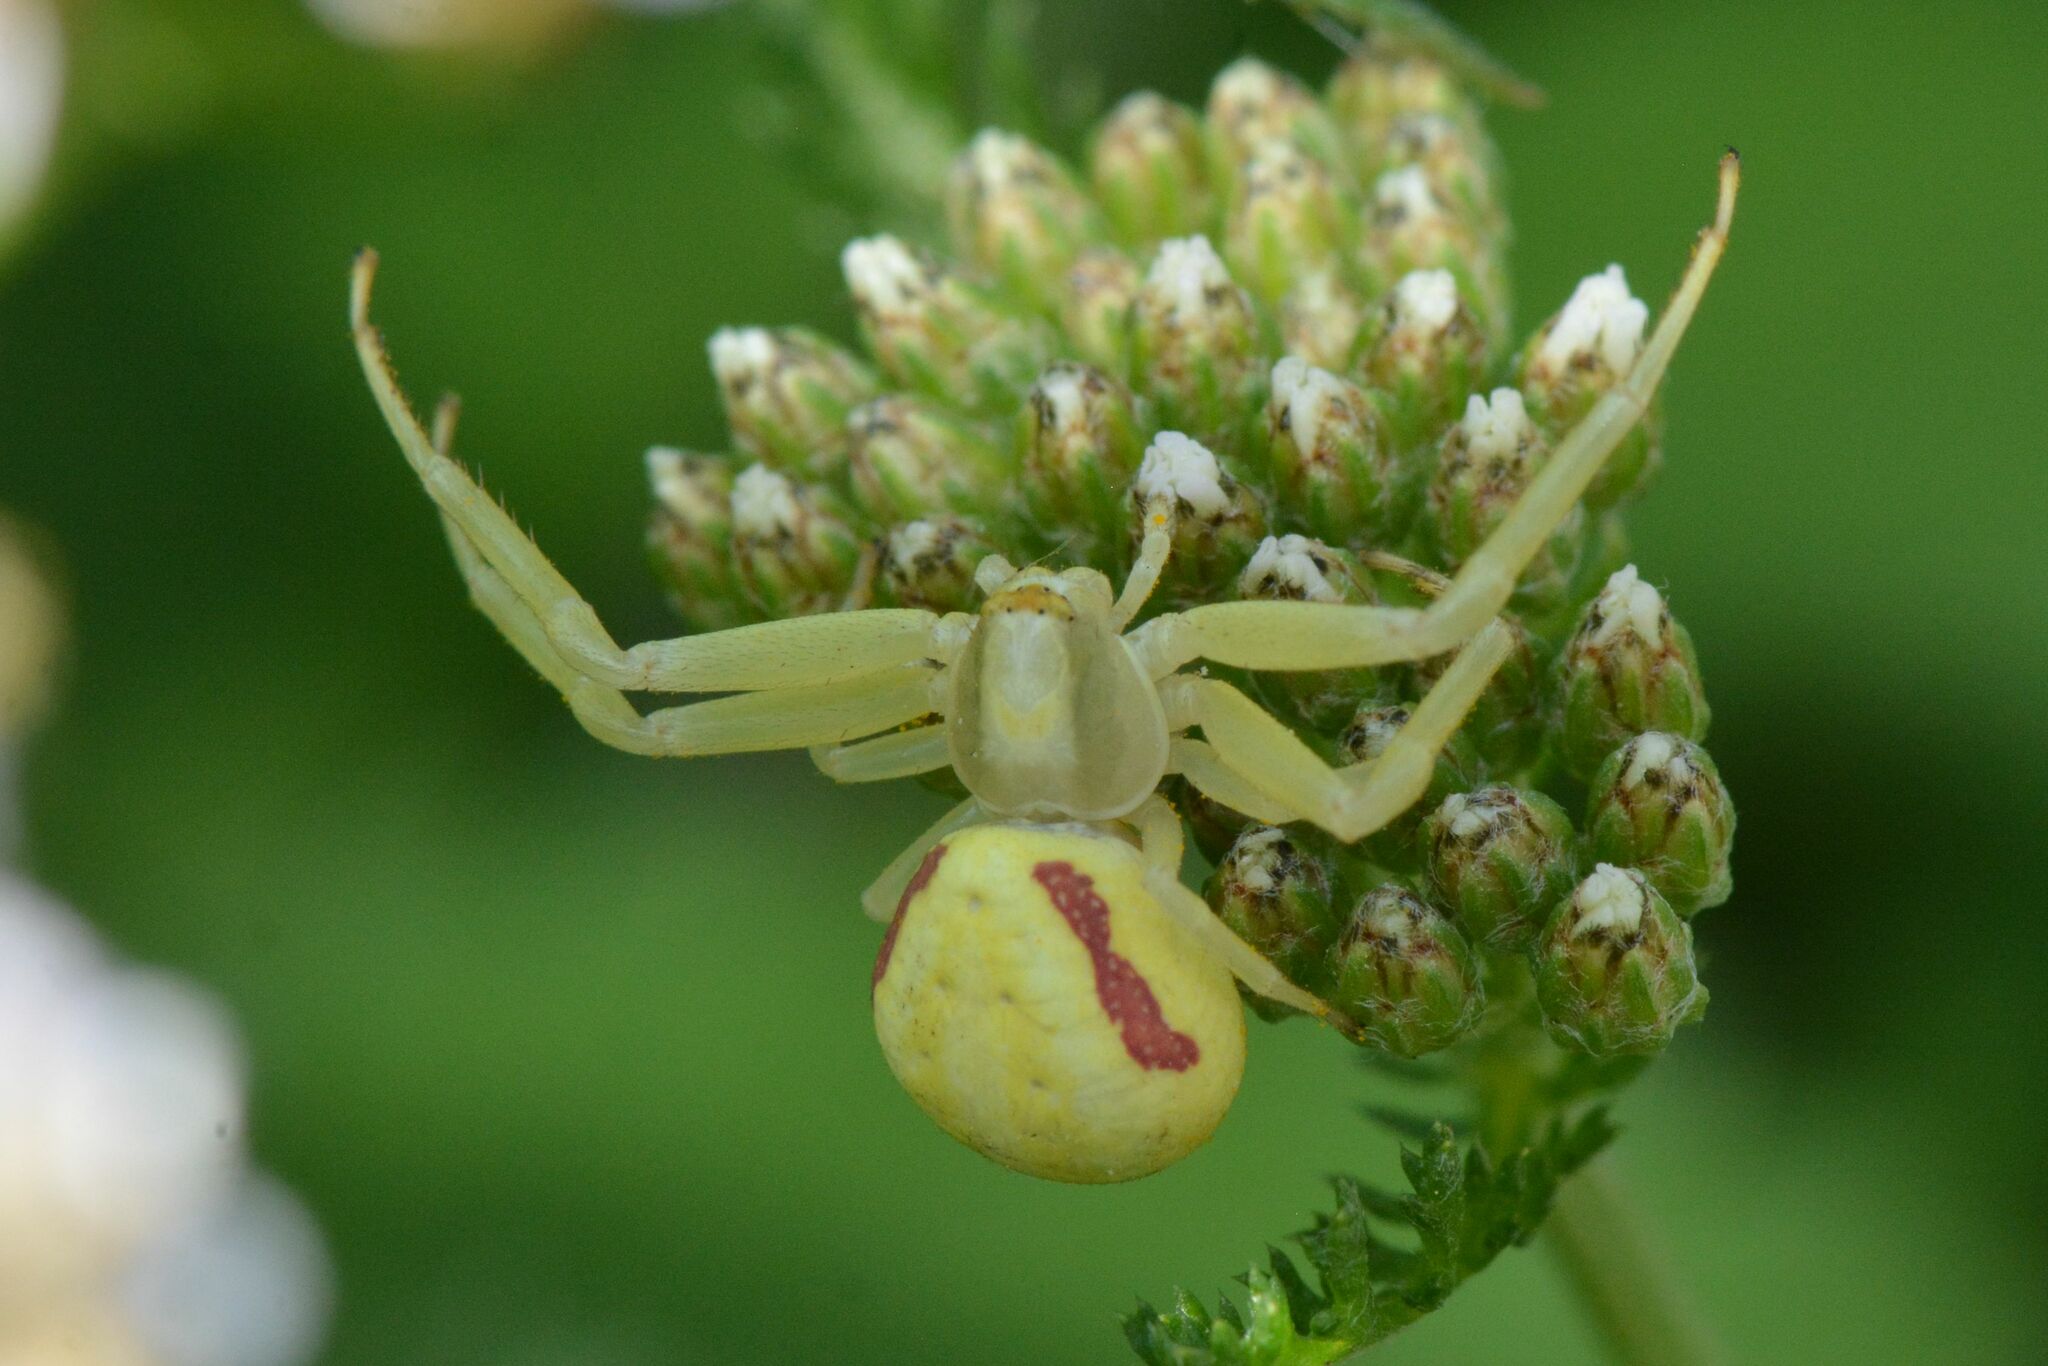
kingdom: Animalia
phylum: Arthropoda
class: Arachnida
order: Araneae
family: Thomisidae
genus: Misumena
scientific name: Misumena vatia
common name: Goldenrod crab spider
